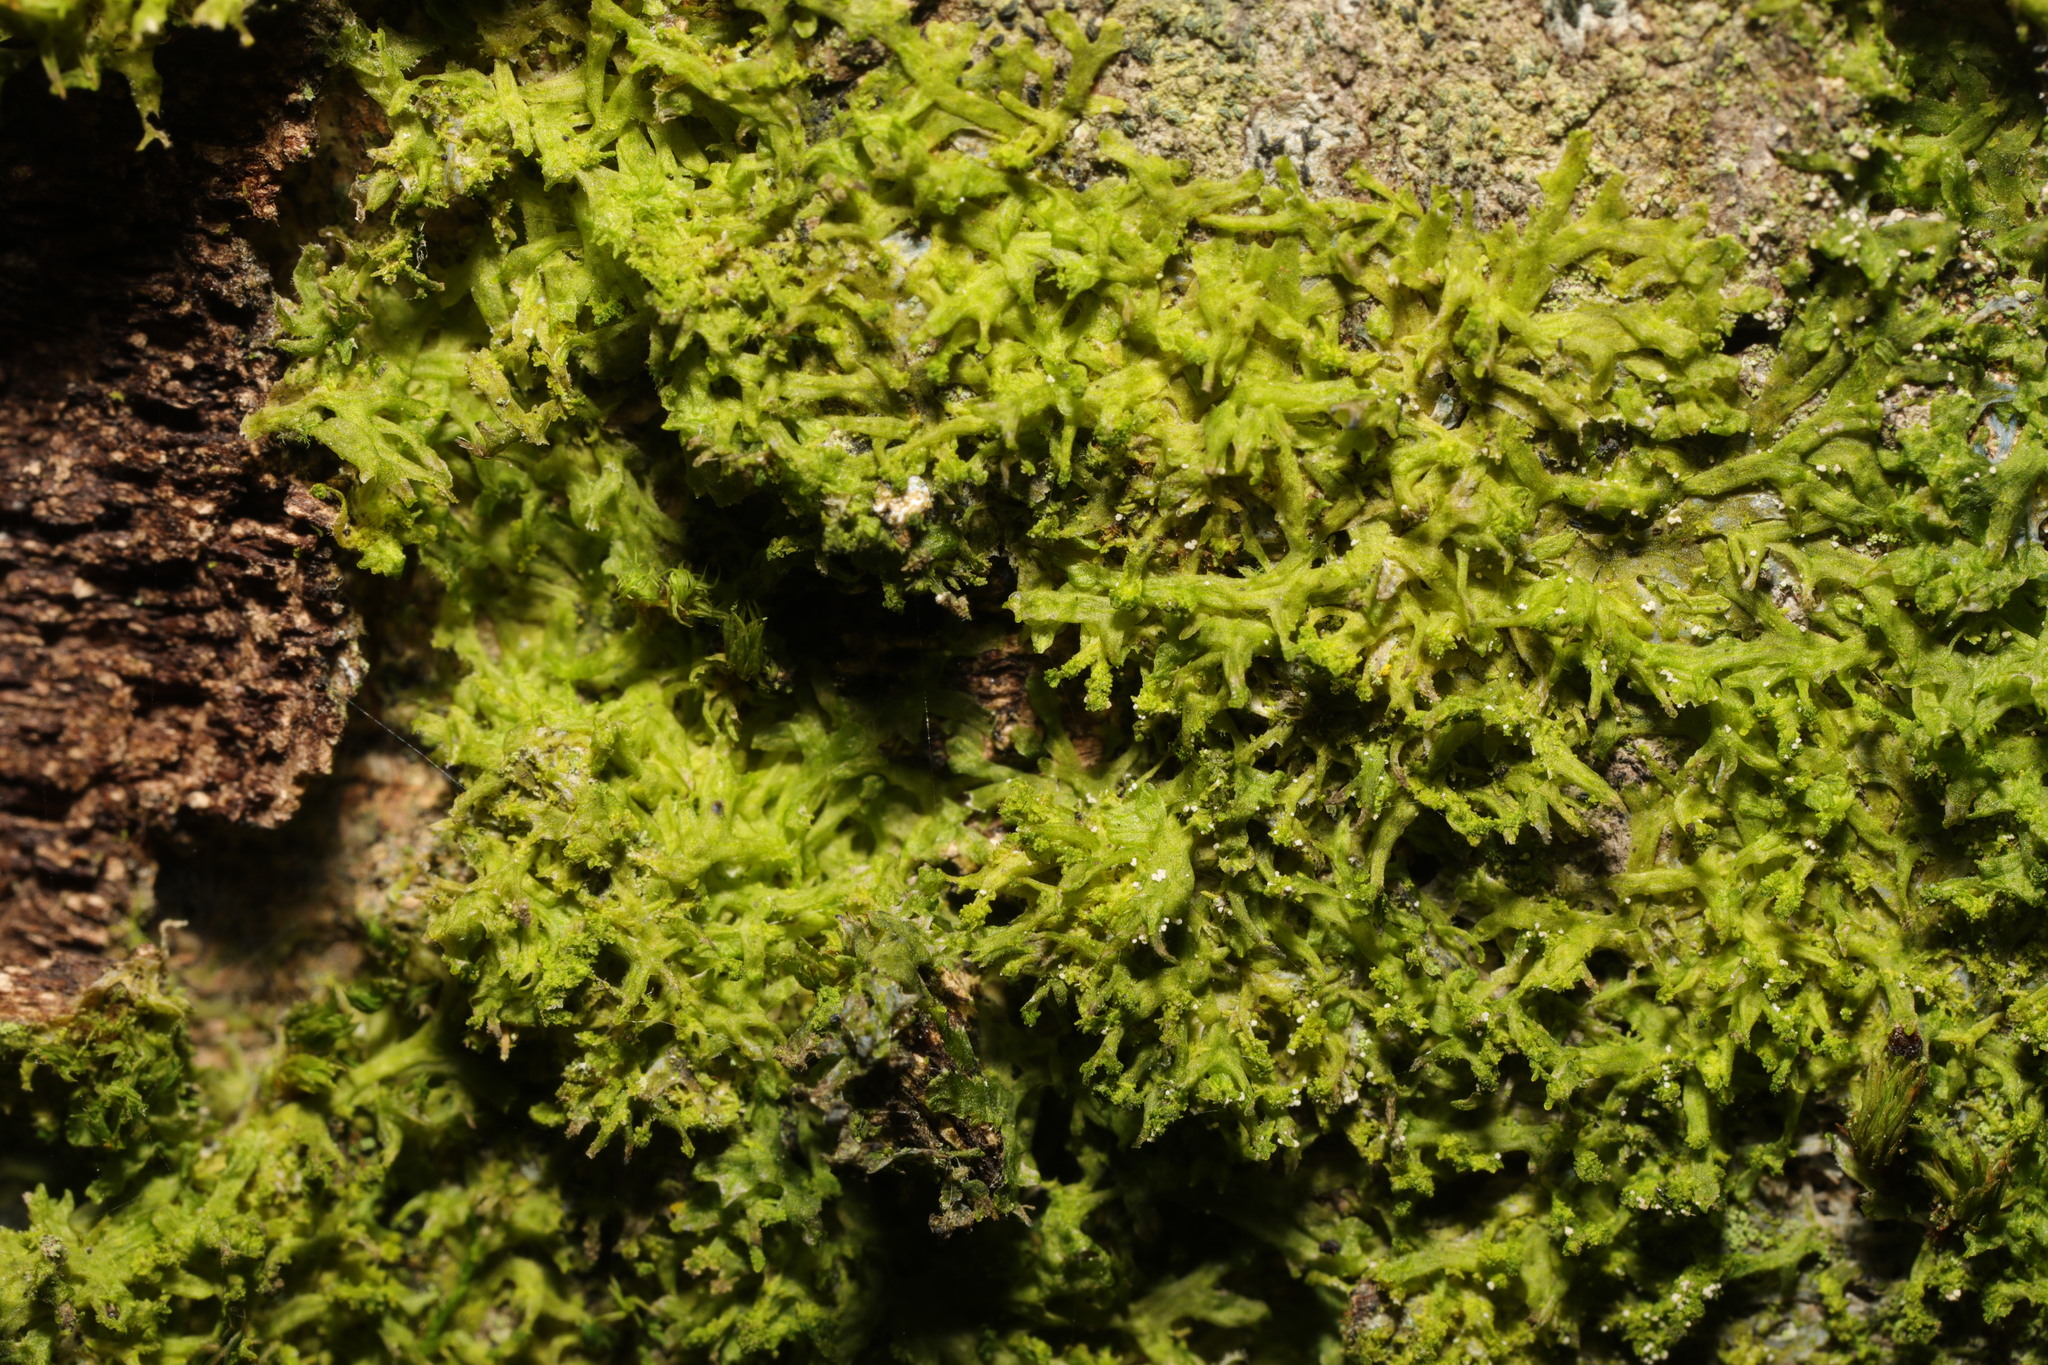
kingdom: Plantae
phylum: Marchantiophyta
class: Jungermanniopsida
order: Metzgeriales
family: Metzgeriaceae
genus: Metzgeria
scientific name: Metzgeria violacea
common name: Blueish veilwort
